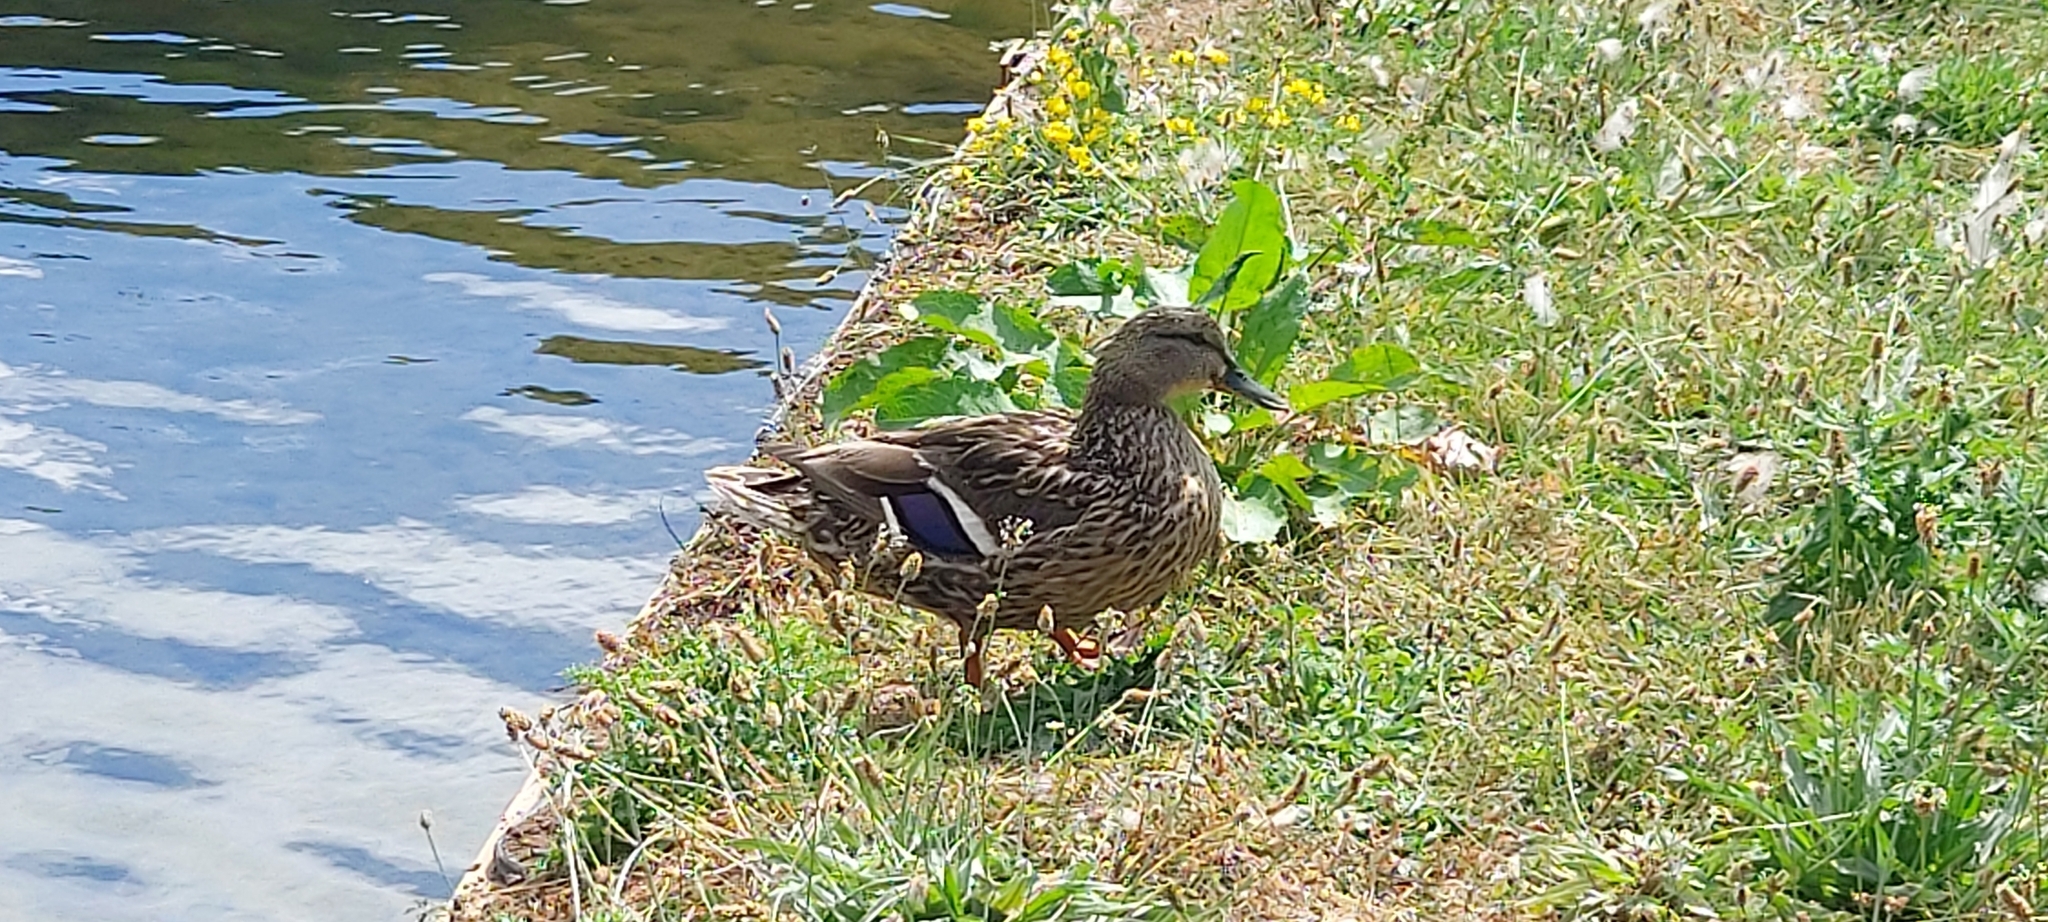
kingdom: Animalia
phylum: Chordata
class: Aves
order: Anseriformes
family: Anatidae
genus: Anas
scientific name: Anas platyrhynchos
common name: Mallard
